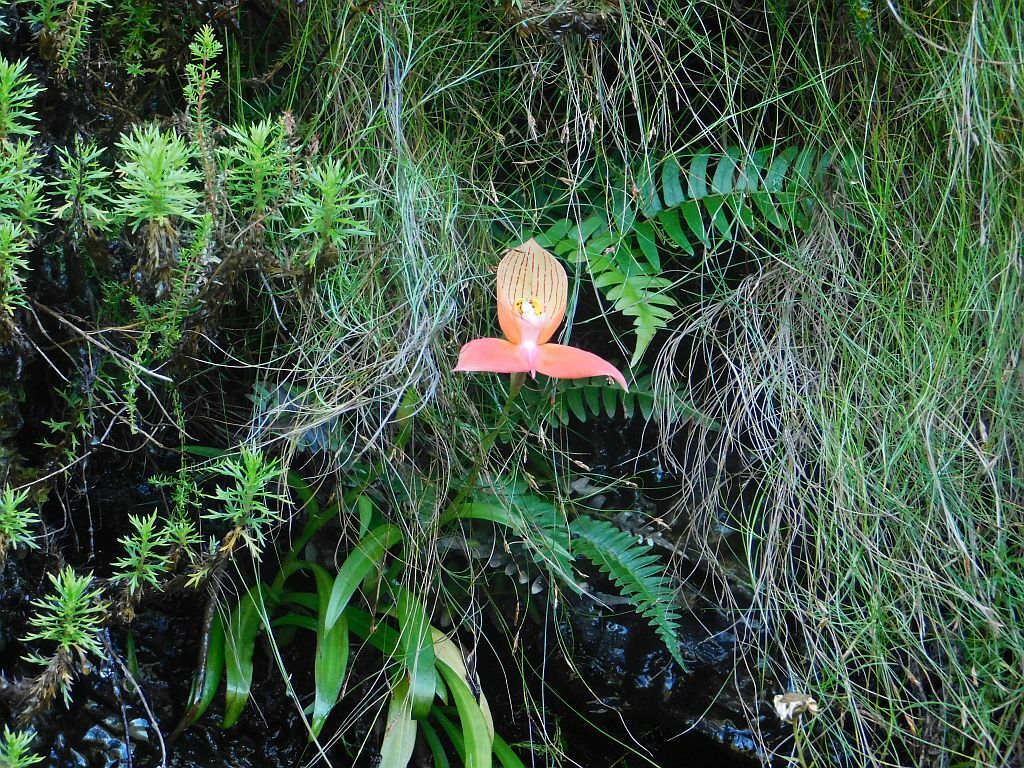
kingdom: Plantae
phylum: Tracheophyta
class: Liliopsida
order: Asparagales
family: Orchidaceae
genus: Disa
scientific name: Disa uniflora
